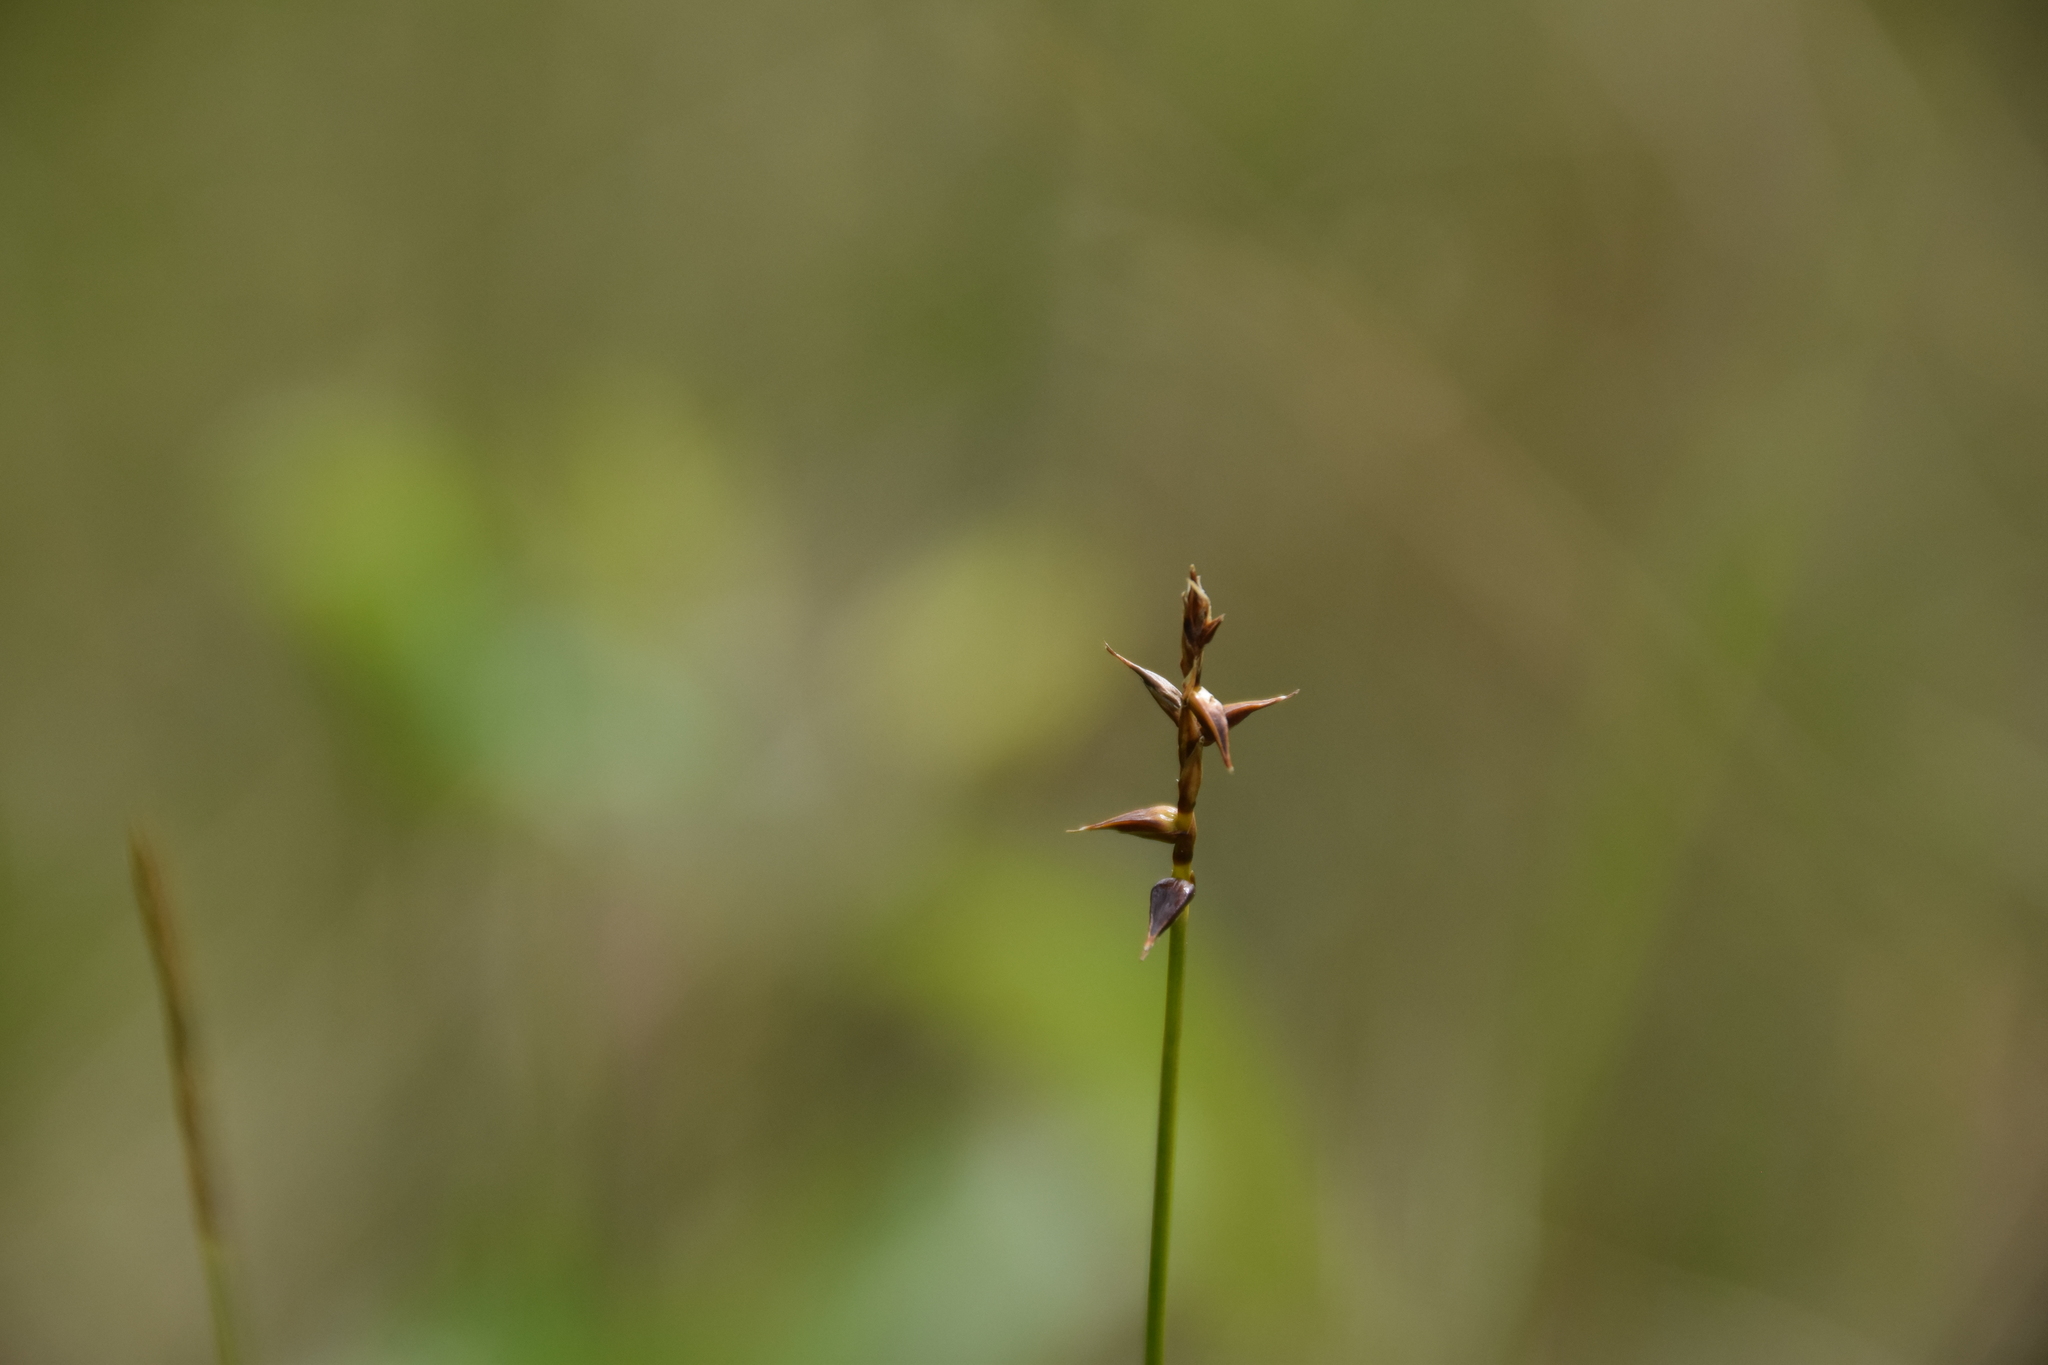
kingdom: Plantae
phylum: Tracheophyta
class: Liliopsida
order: Poales
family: Cyperaceae
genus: Carex
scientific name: Carex davalliana
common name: Davall's sedge
